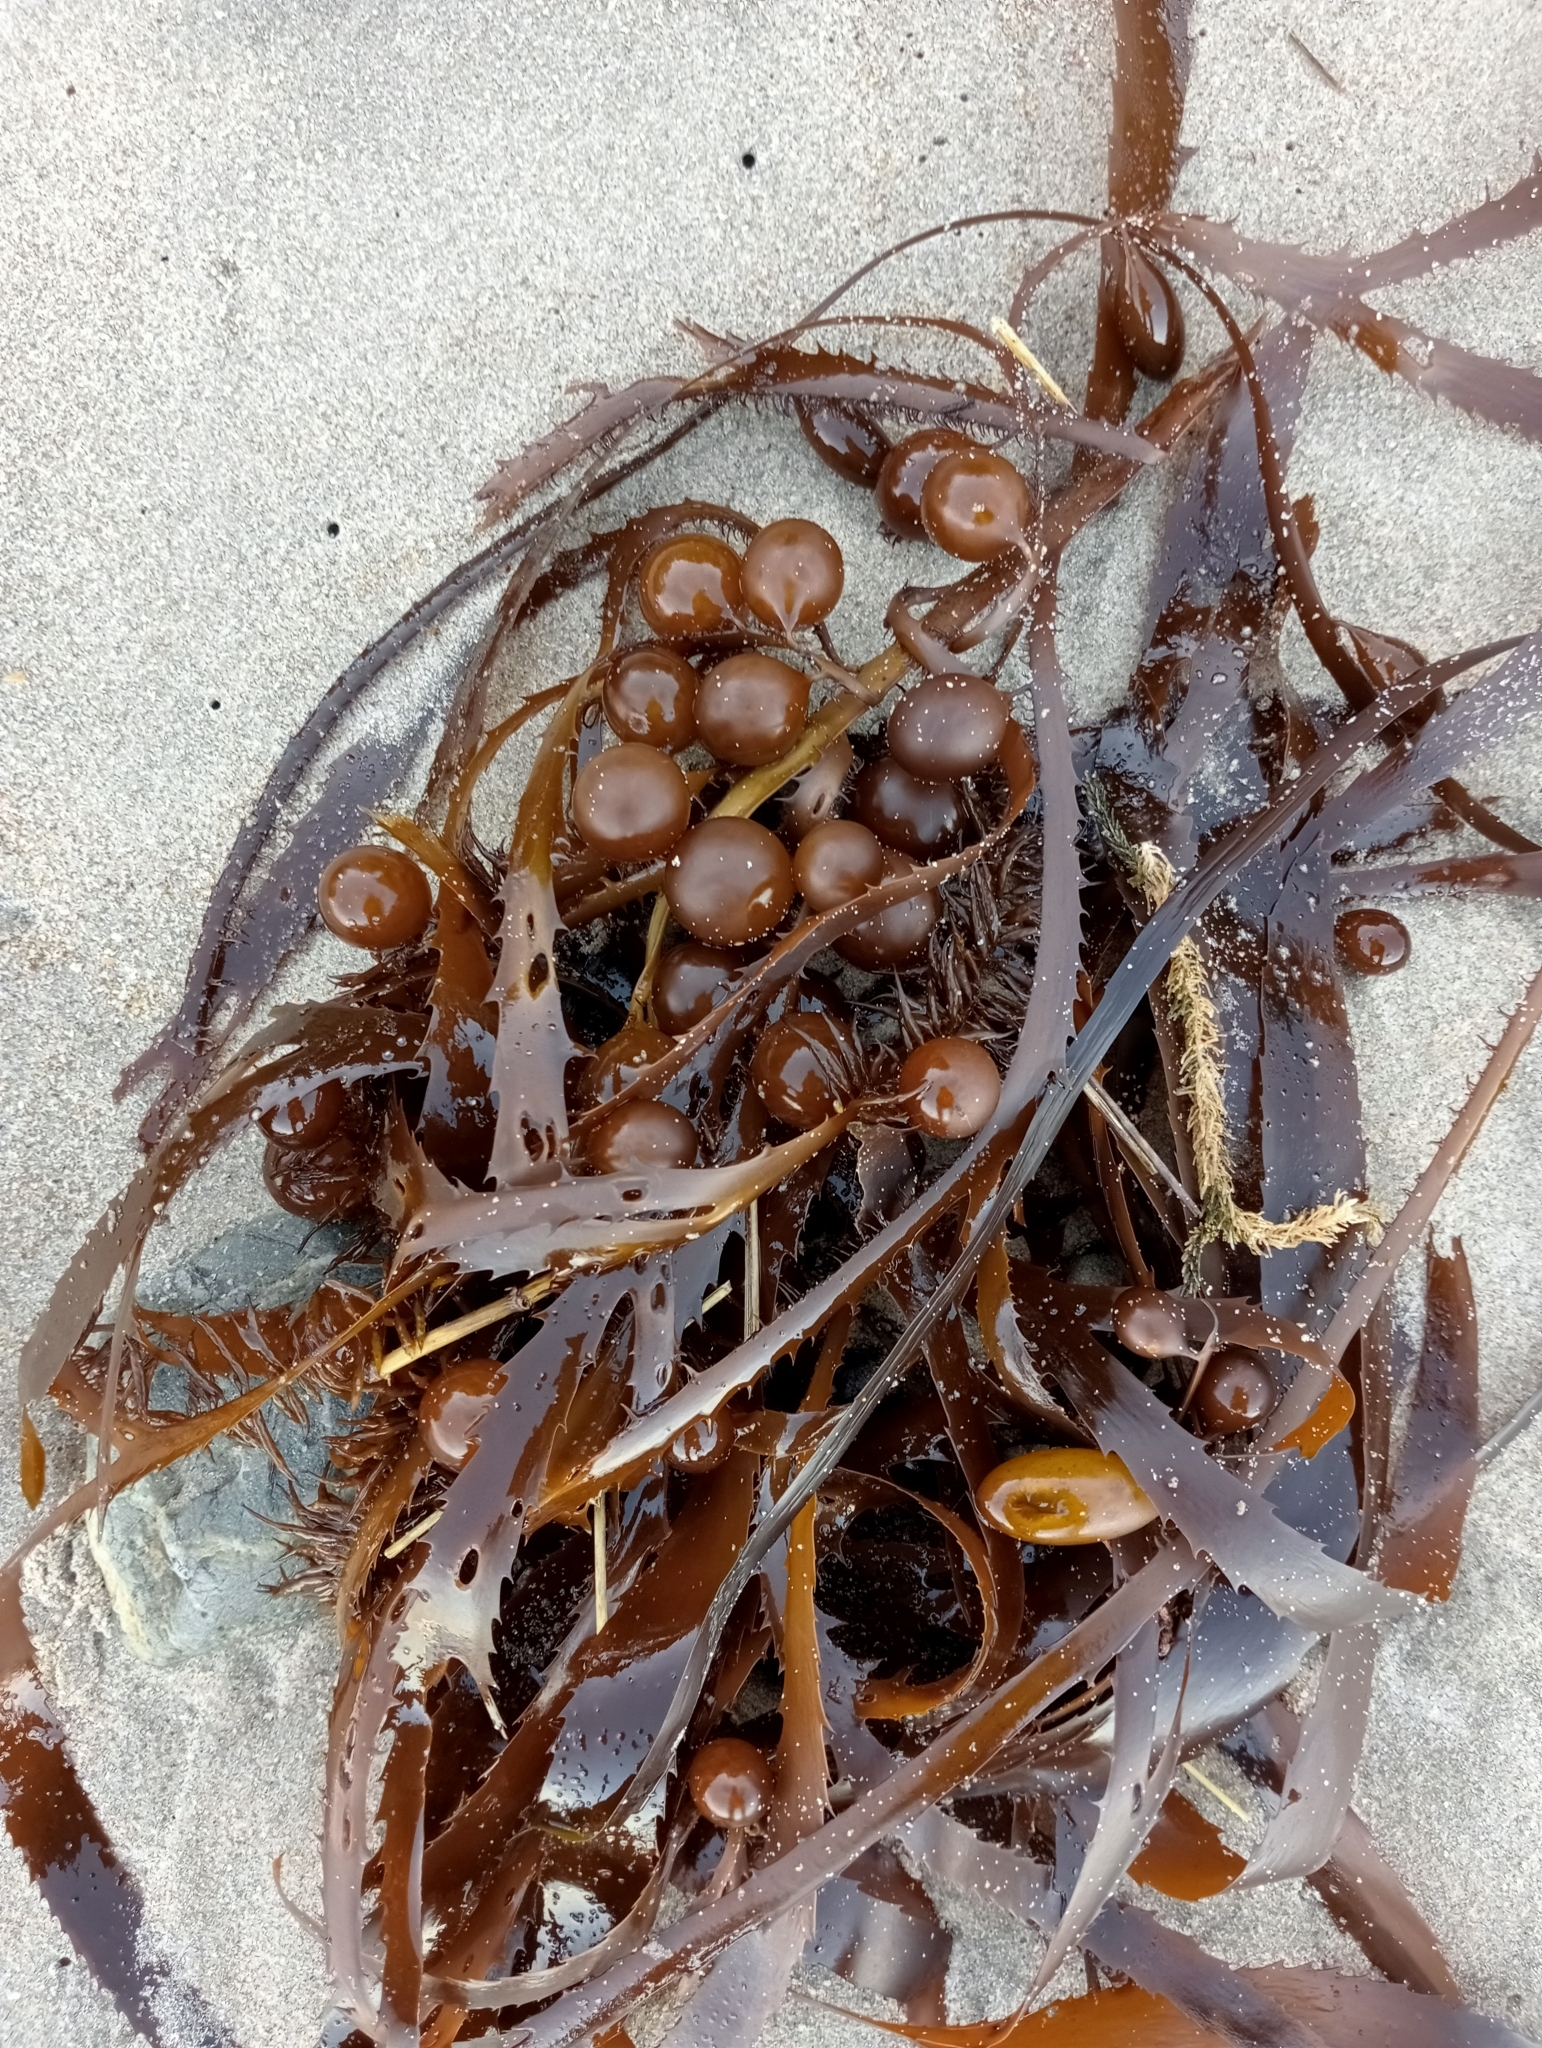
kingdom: Chromista
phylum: Ochrophyta
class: Phaeophyceae
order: Fucales
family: Seirococcaceae
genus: Marginariella
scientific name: Marginariella urvilliana
